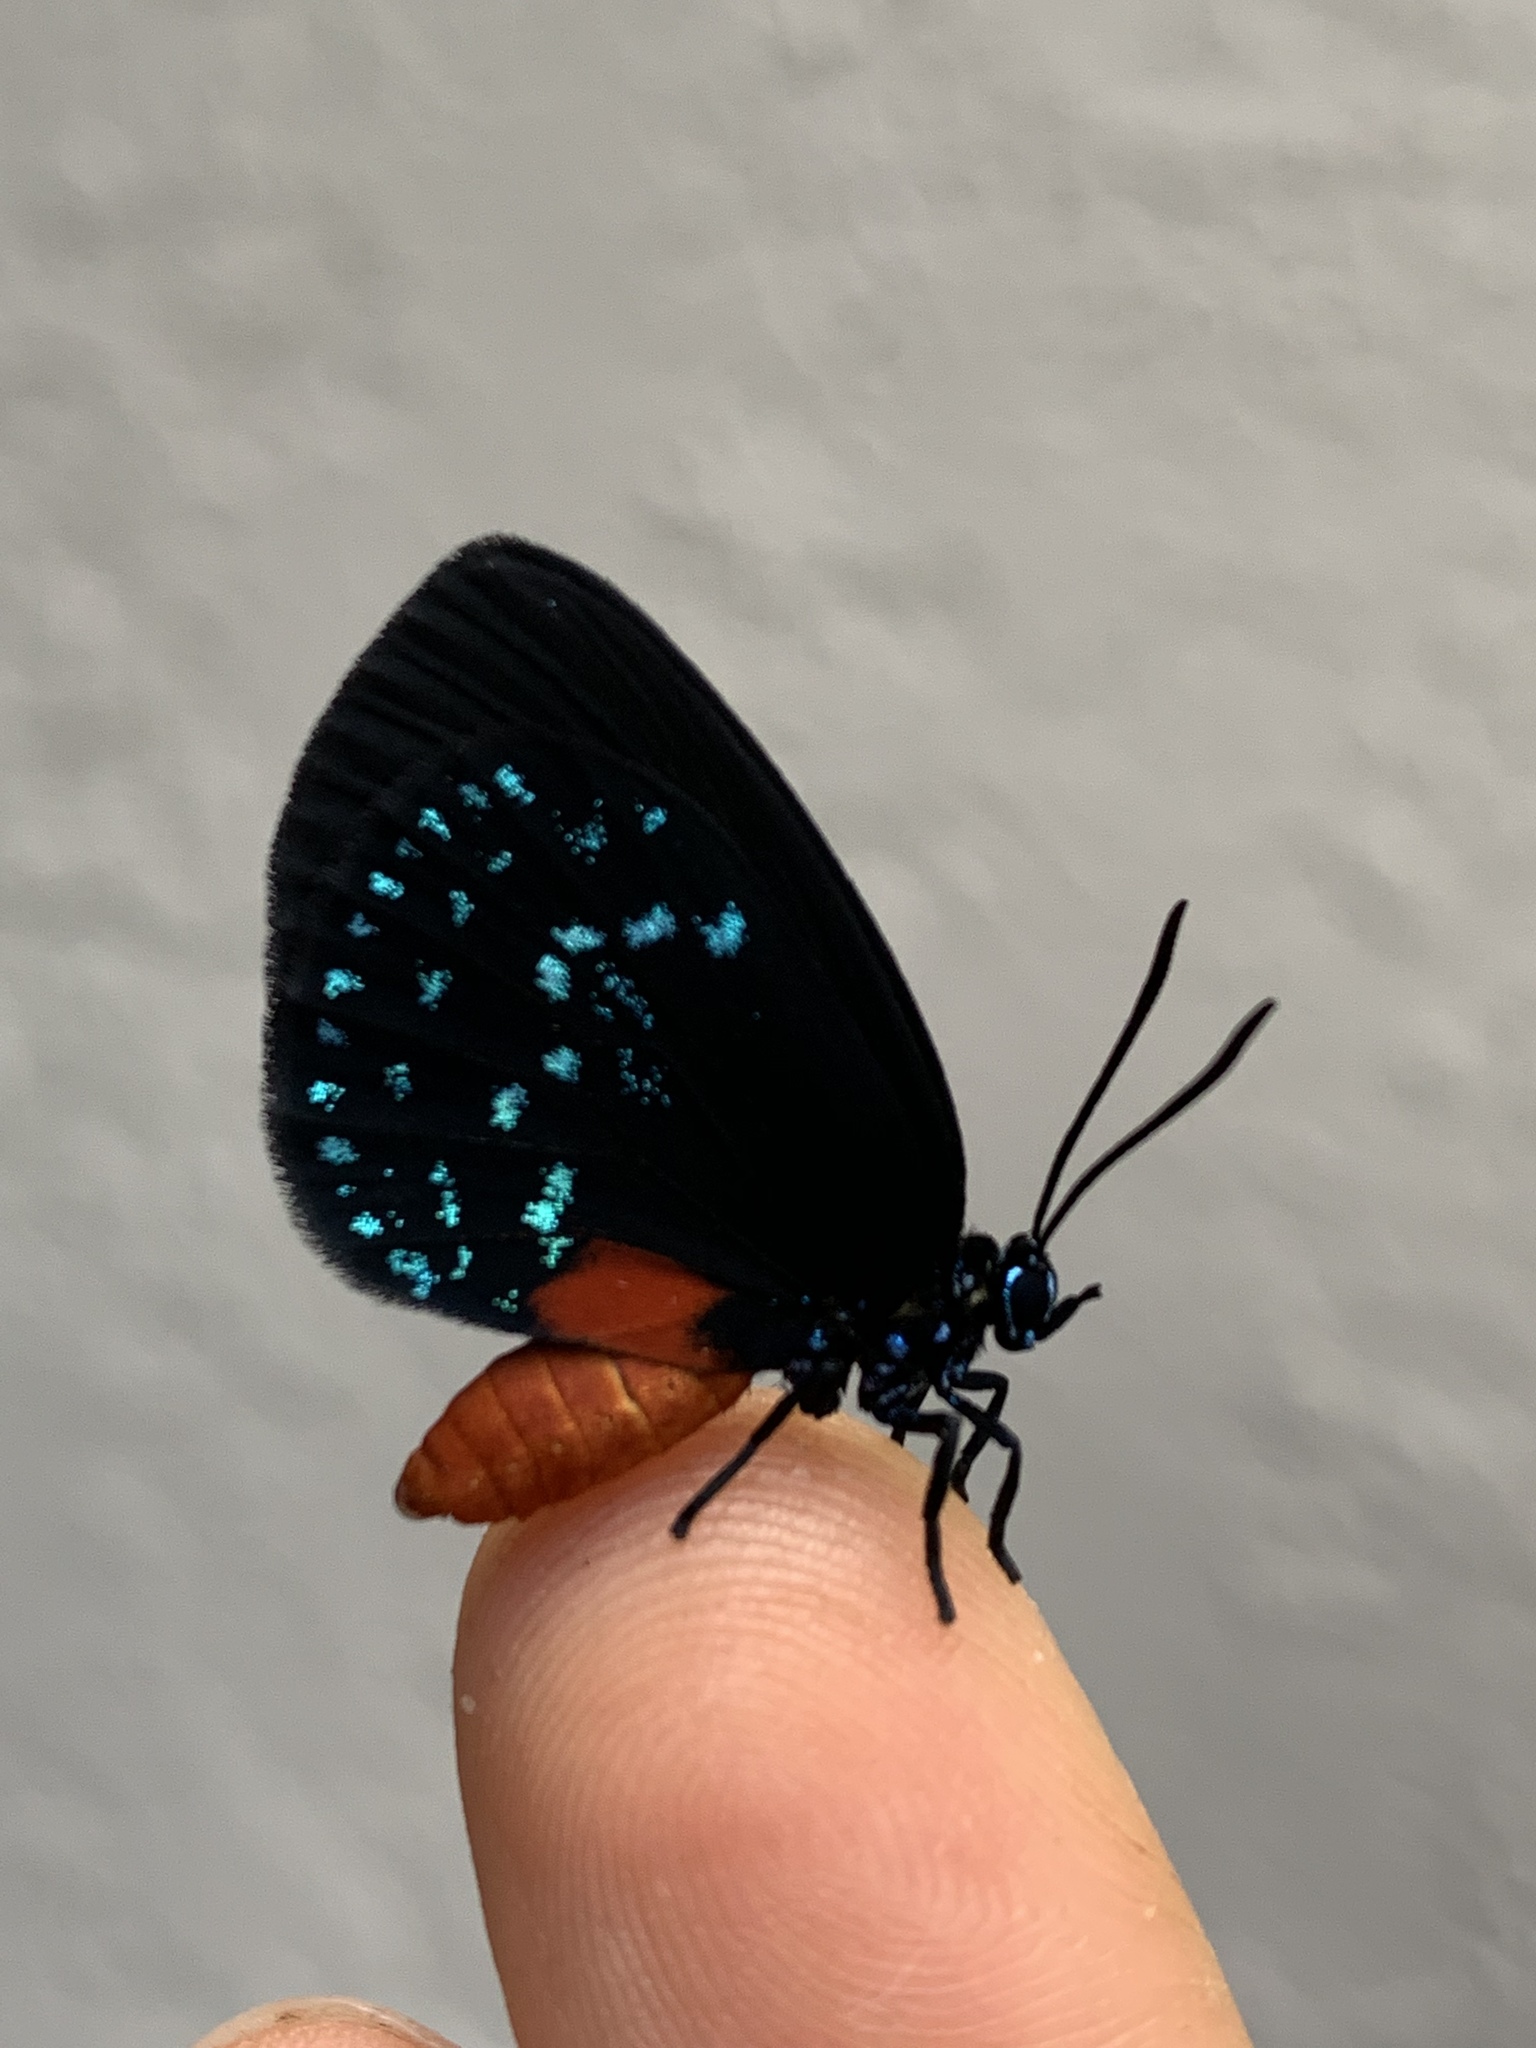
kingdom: Animalia
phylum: Arthropoda
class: Insecta
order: Lepidoptera
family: Lycaenidae
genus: Eumaeus
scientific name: Eumaeus atala
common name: Atala
